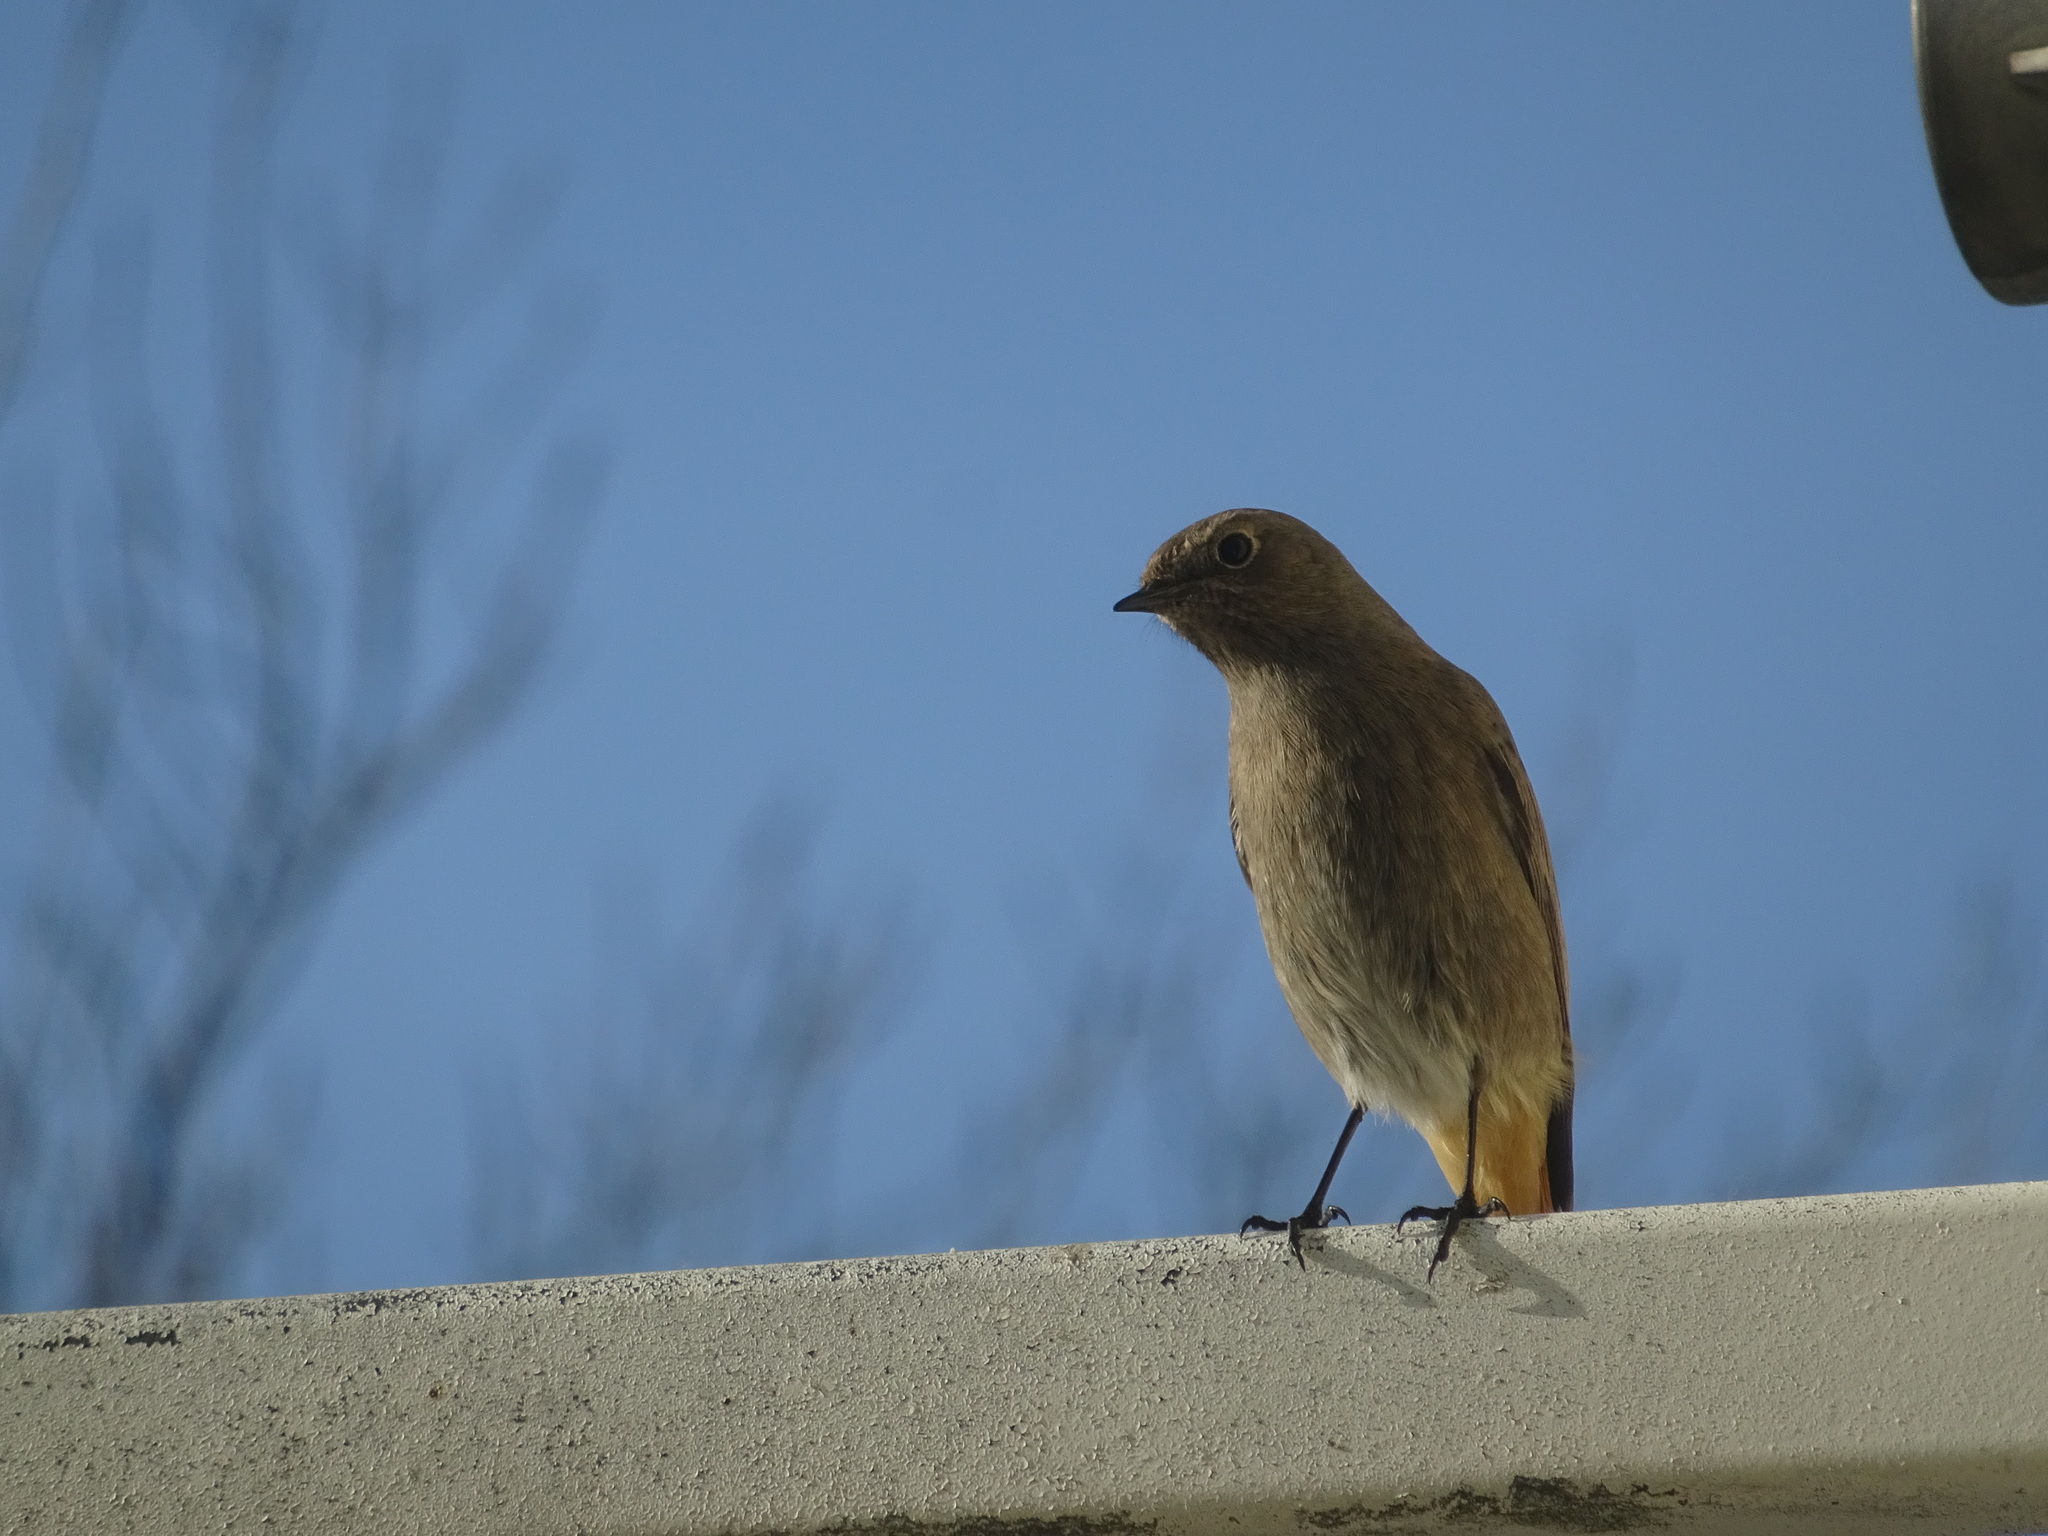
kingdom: Animalia
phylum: Chordata
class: Aves
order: Passeriformes
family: Muscicapidae
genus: Phoenicurus
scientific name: Phoenicurus ochruros
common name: Black redstart
